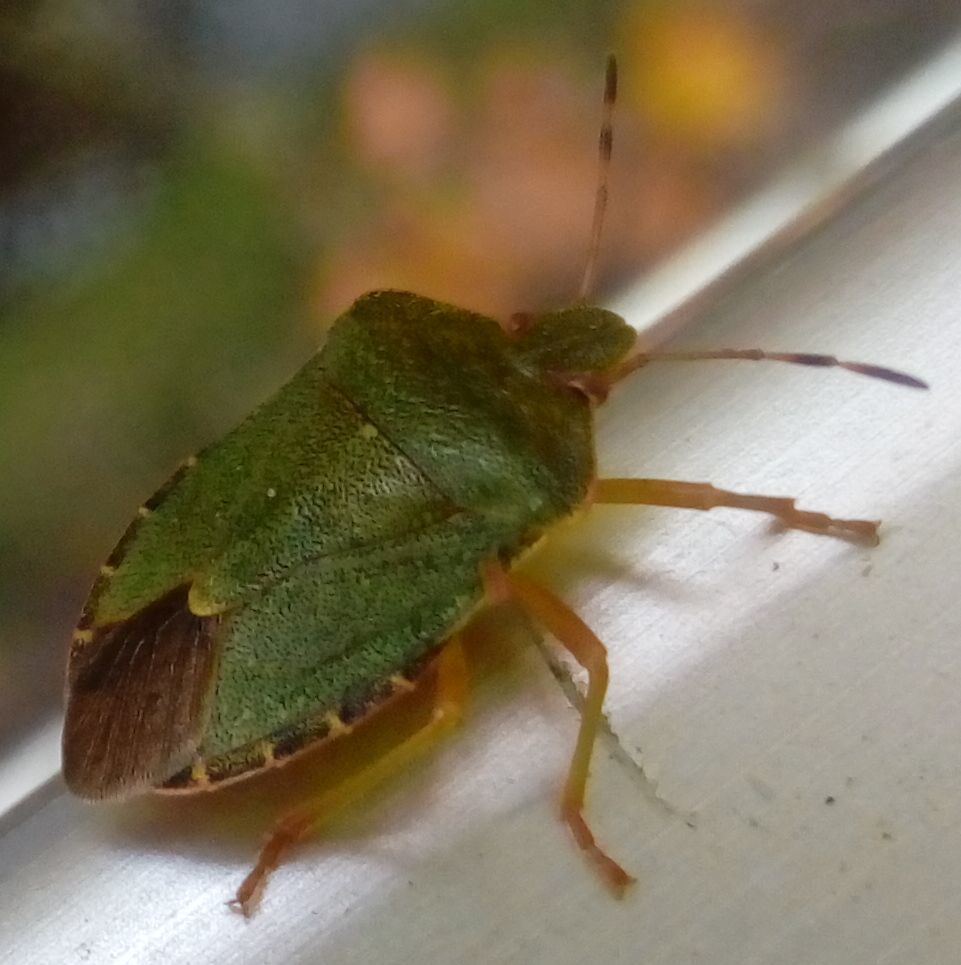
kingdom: Animalia
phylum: Arthropoda
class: Insecta
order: Hemiptera
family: Pentatomidae
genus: Palomena
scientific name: Palomena prasina
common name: Green shieldbug
